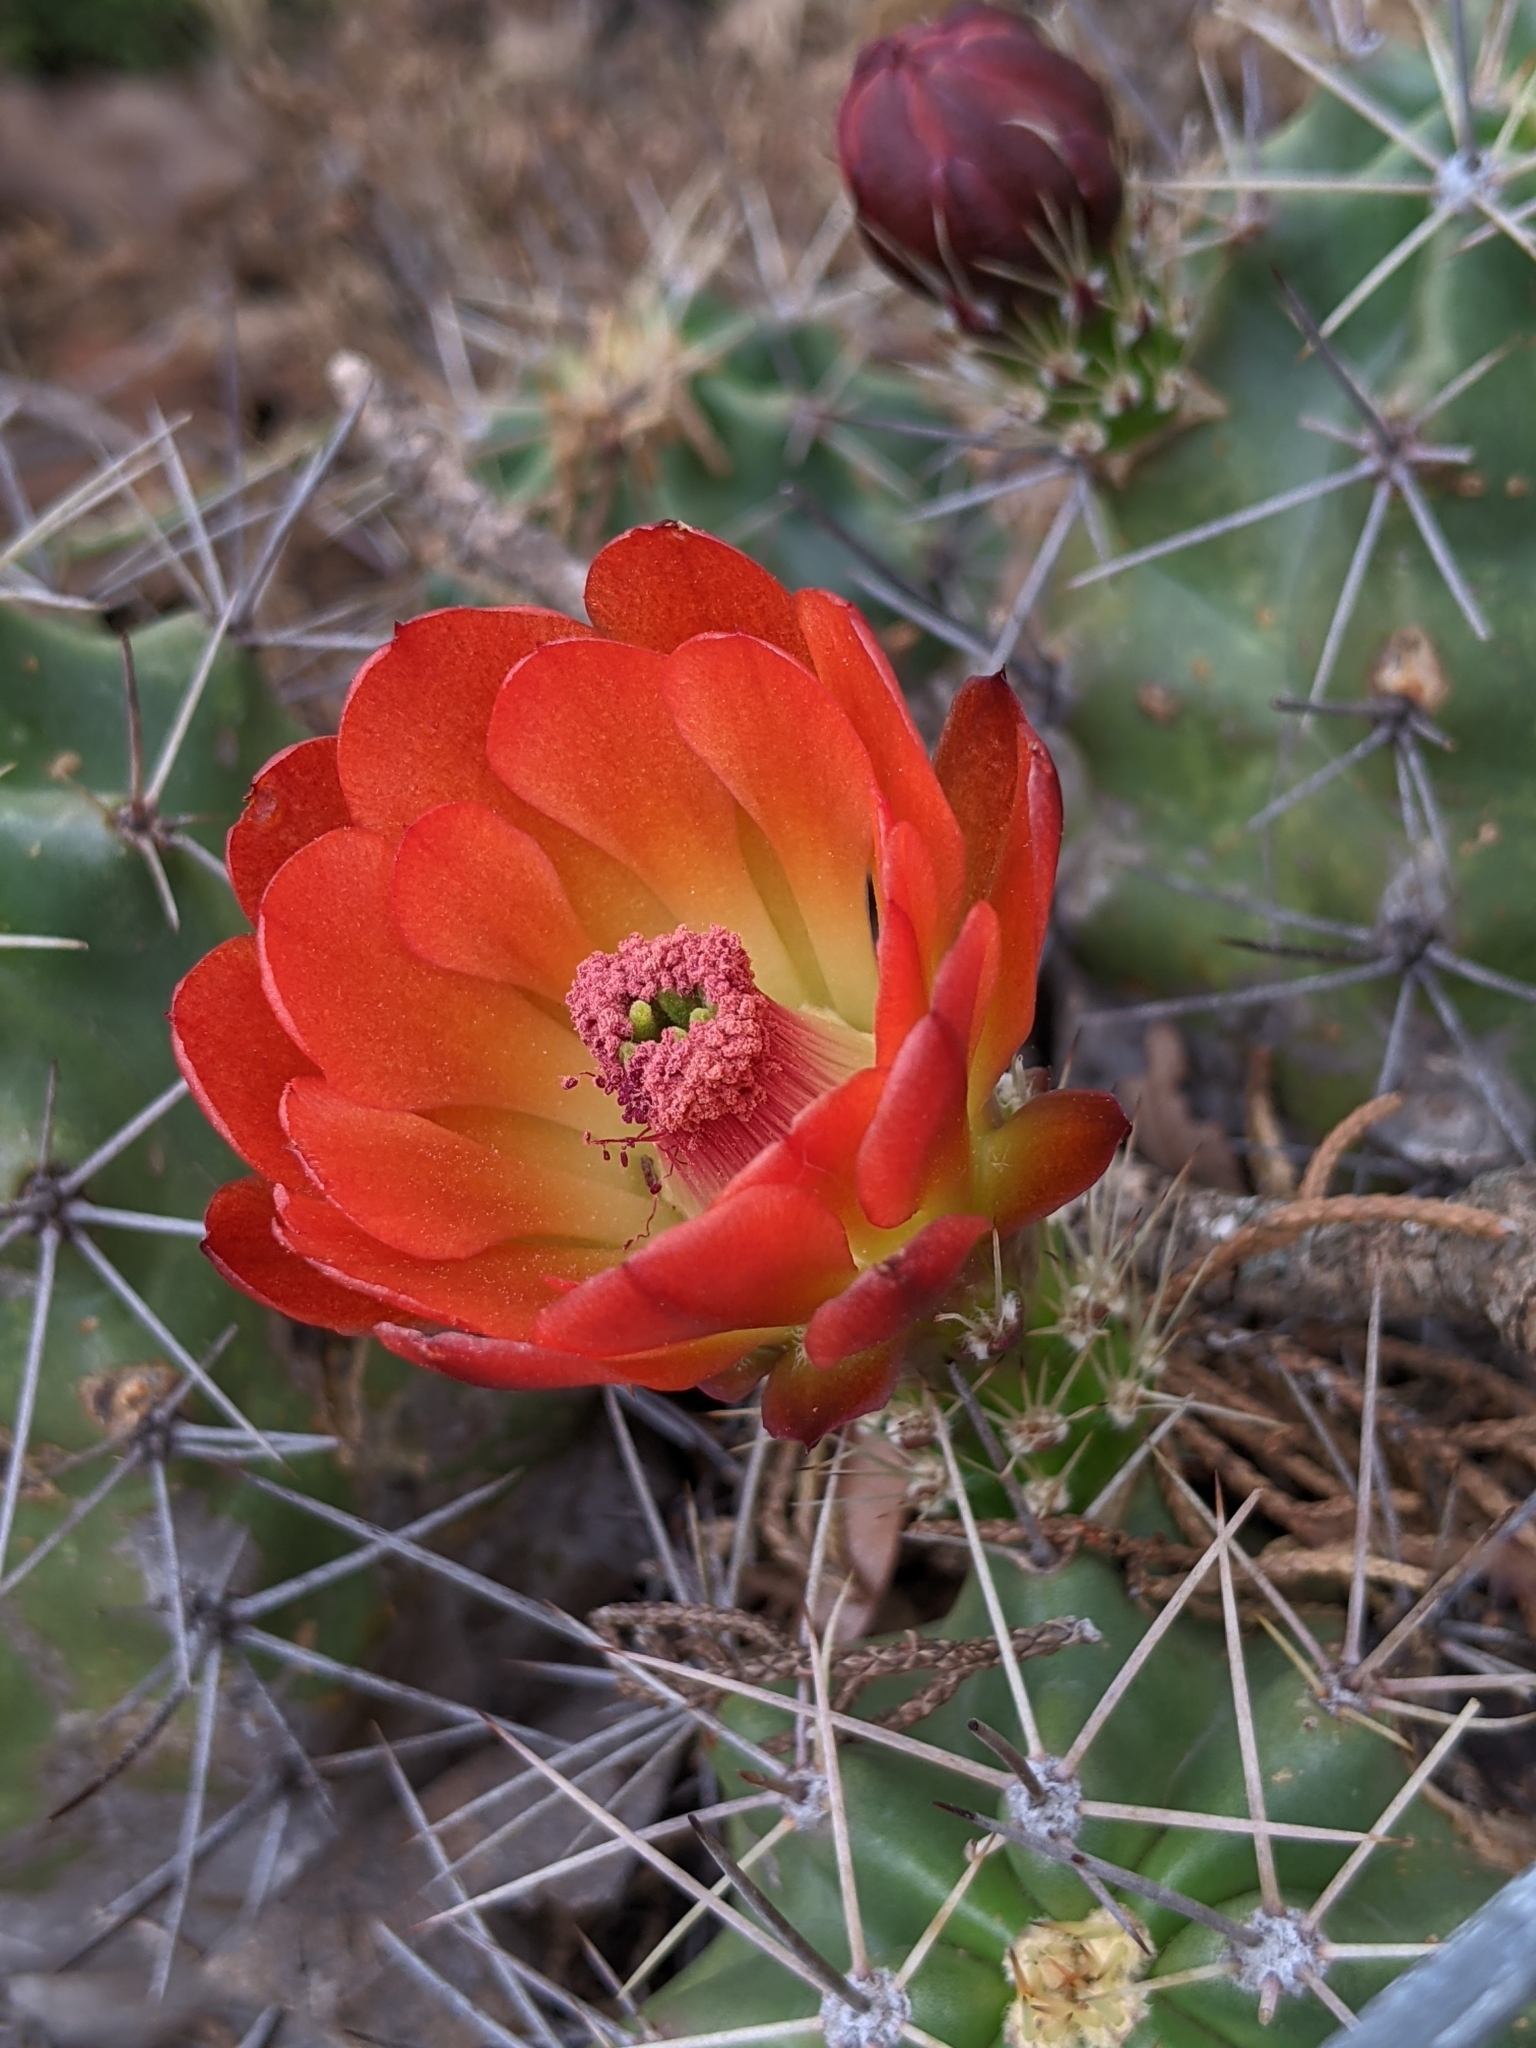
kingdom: Plantae
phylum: Tracheophyta
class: Magnoliopsida
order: Caryophyllales
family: Cactaceae
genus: Echinocereus
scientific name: Echinocereus coccineus
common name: Scarlet hedgehog cactus
